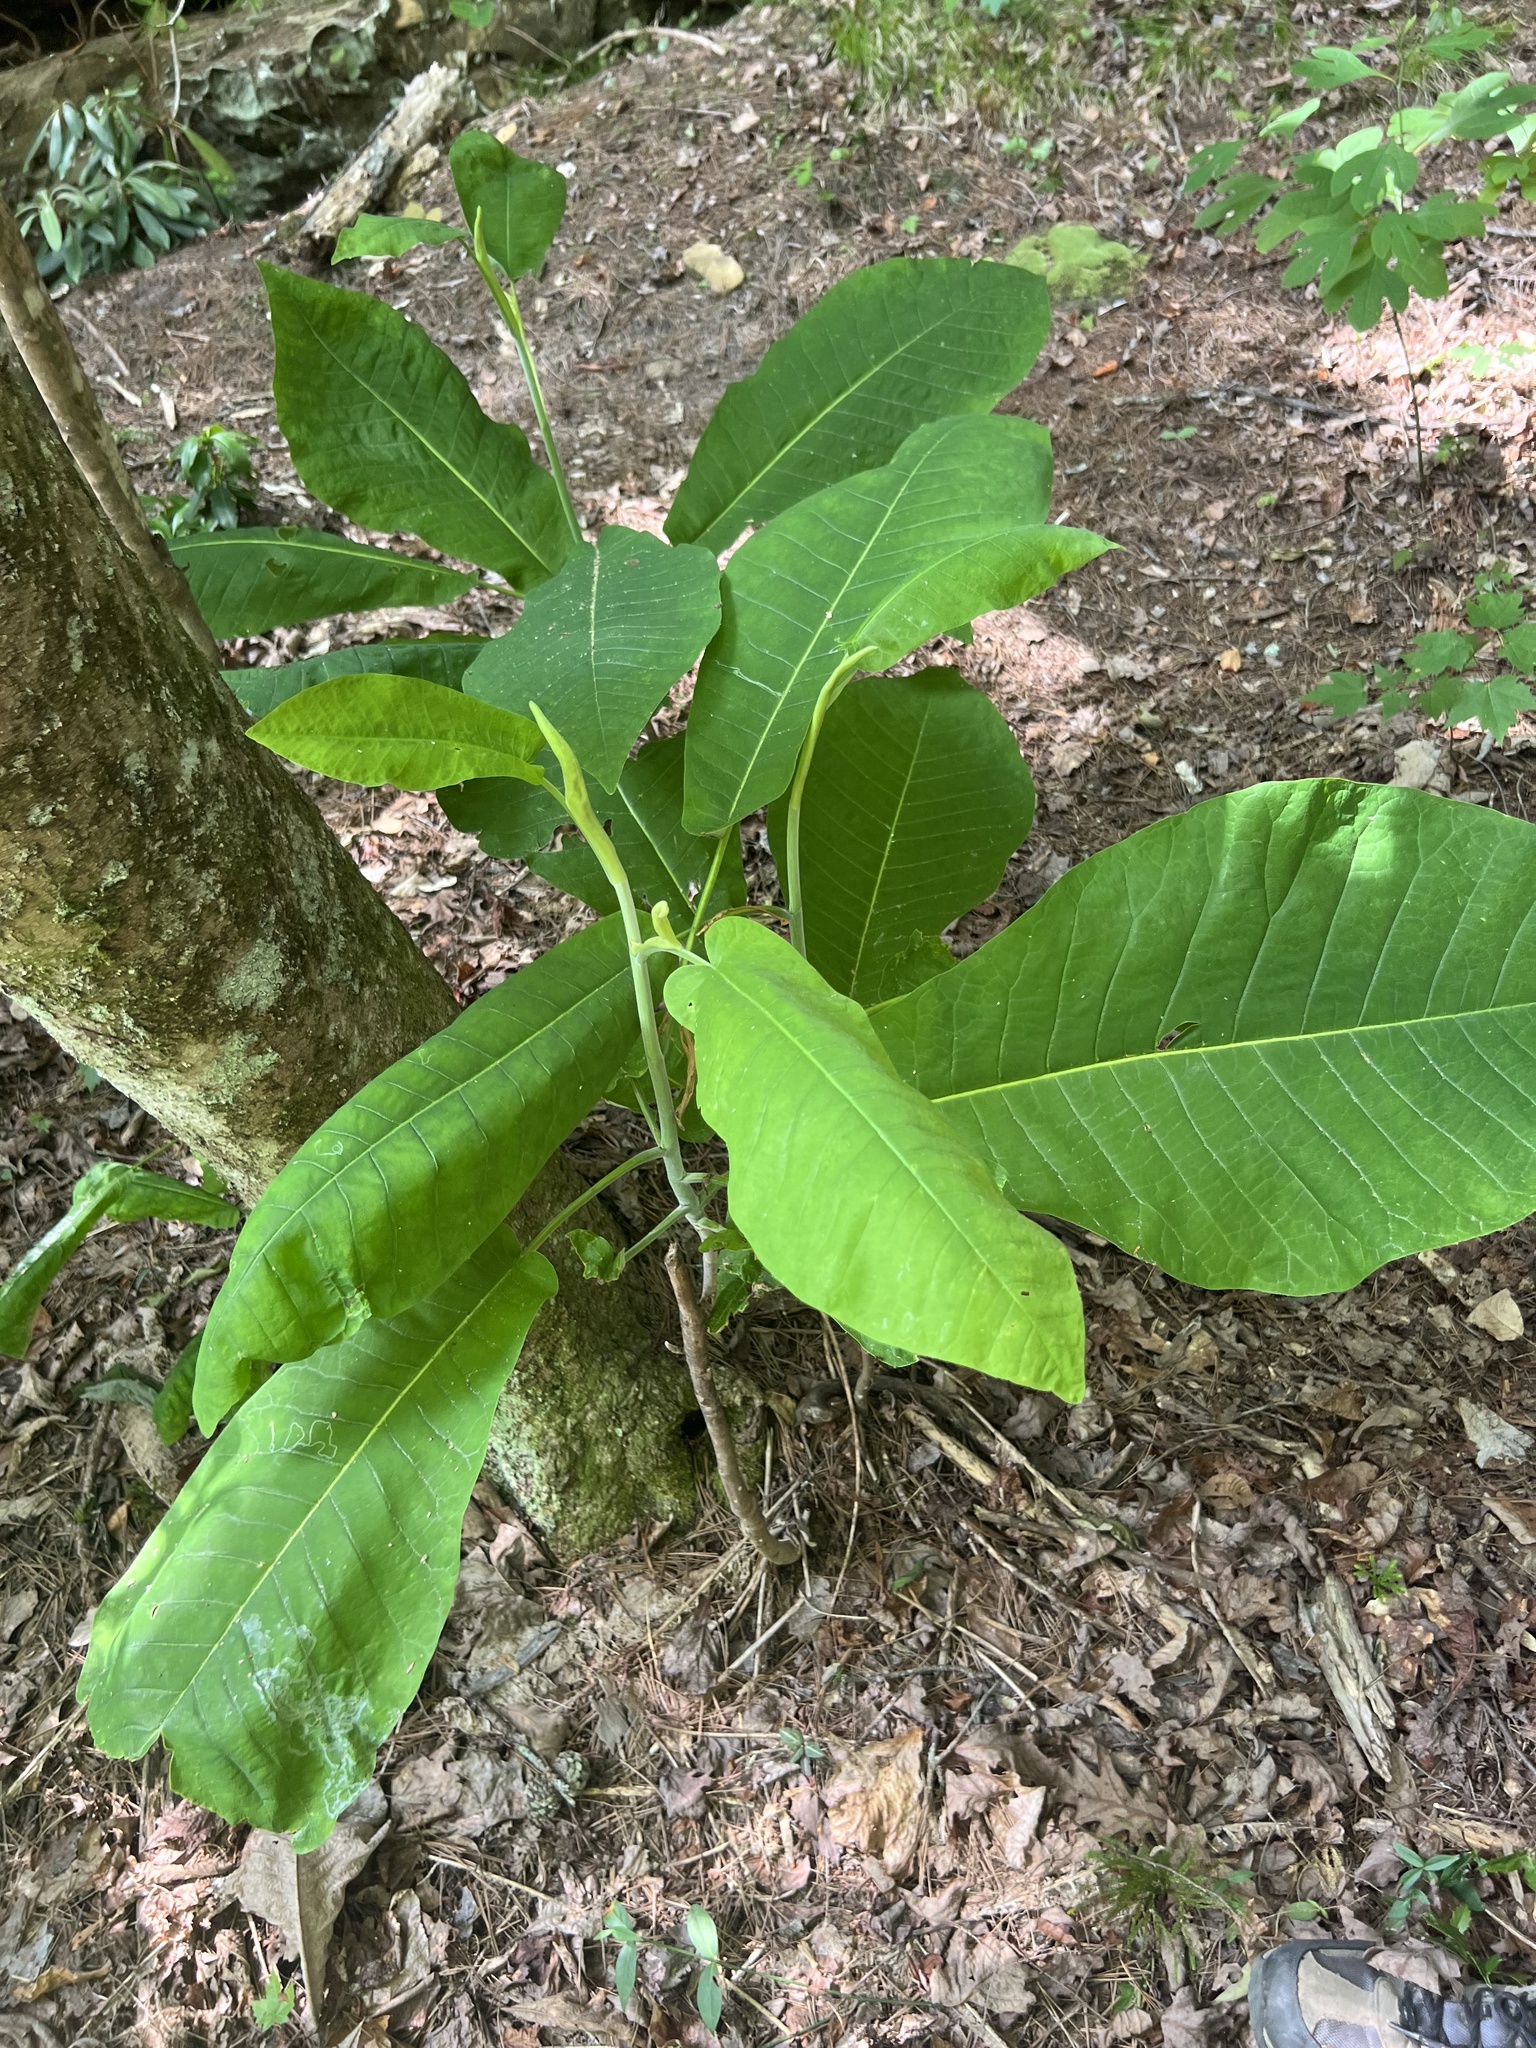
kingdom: Plantae
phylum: Tracheophyta
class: Magnoliopsida
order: Magnoliales
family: Magnoliaceae
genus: Magnolia
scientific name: Magnolia macrophylla
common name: Big-leaf magnolia
